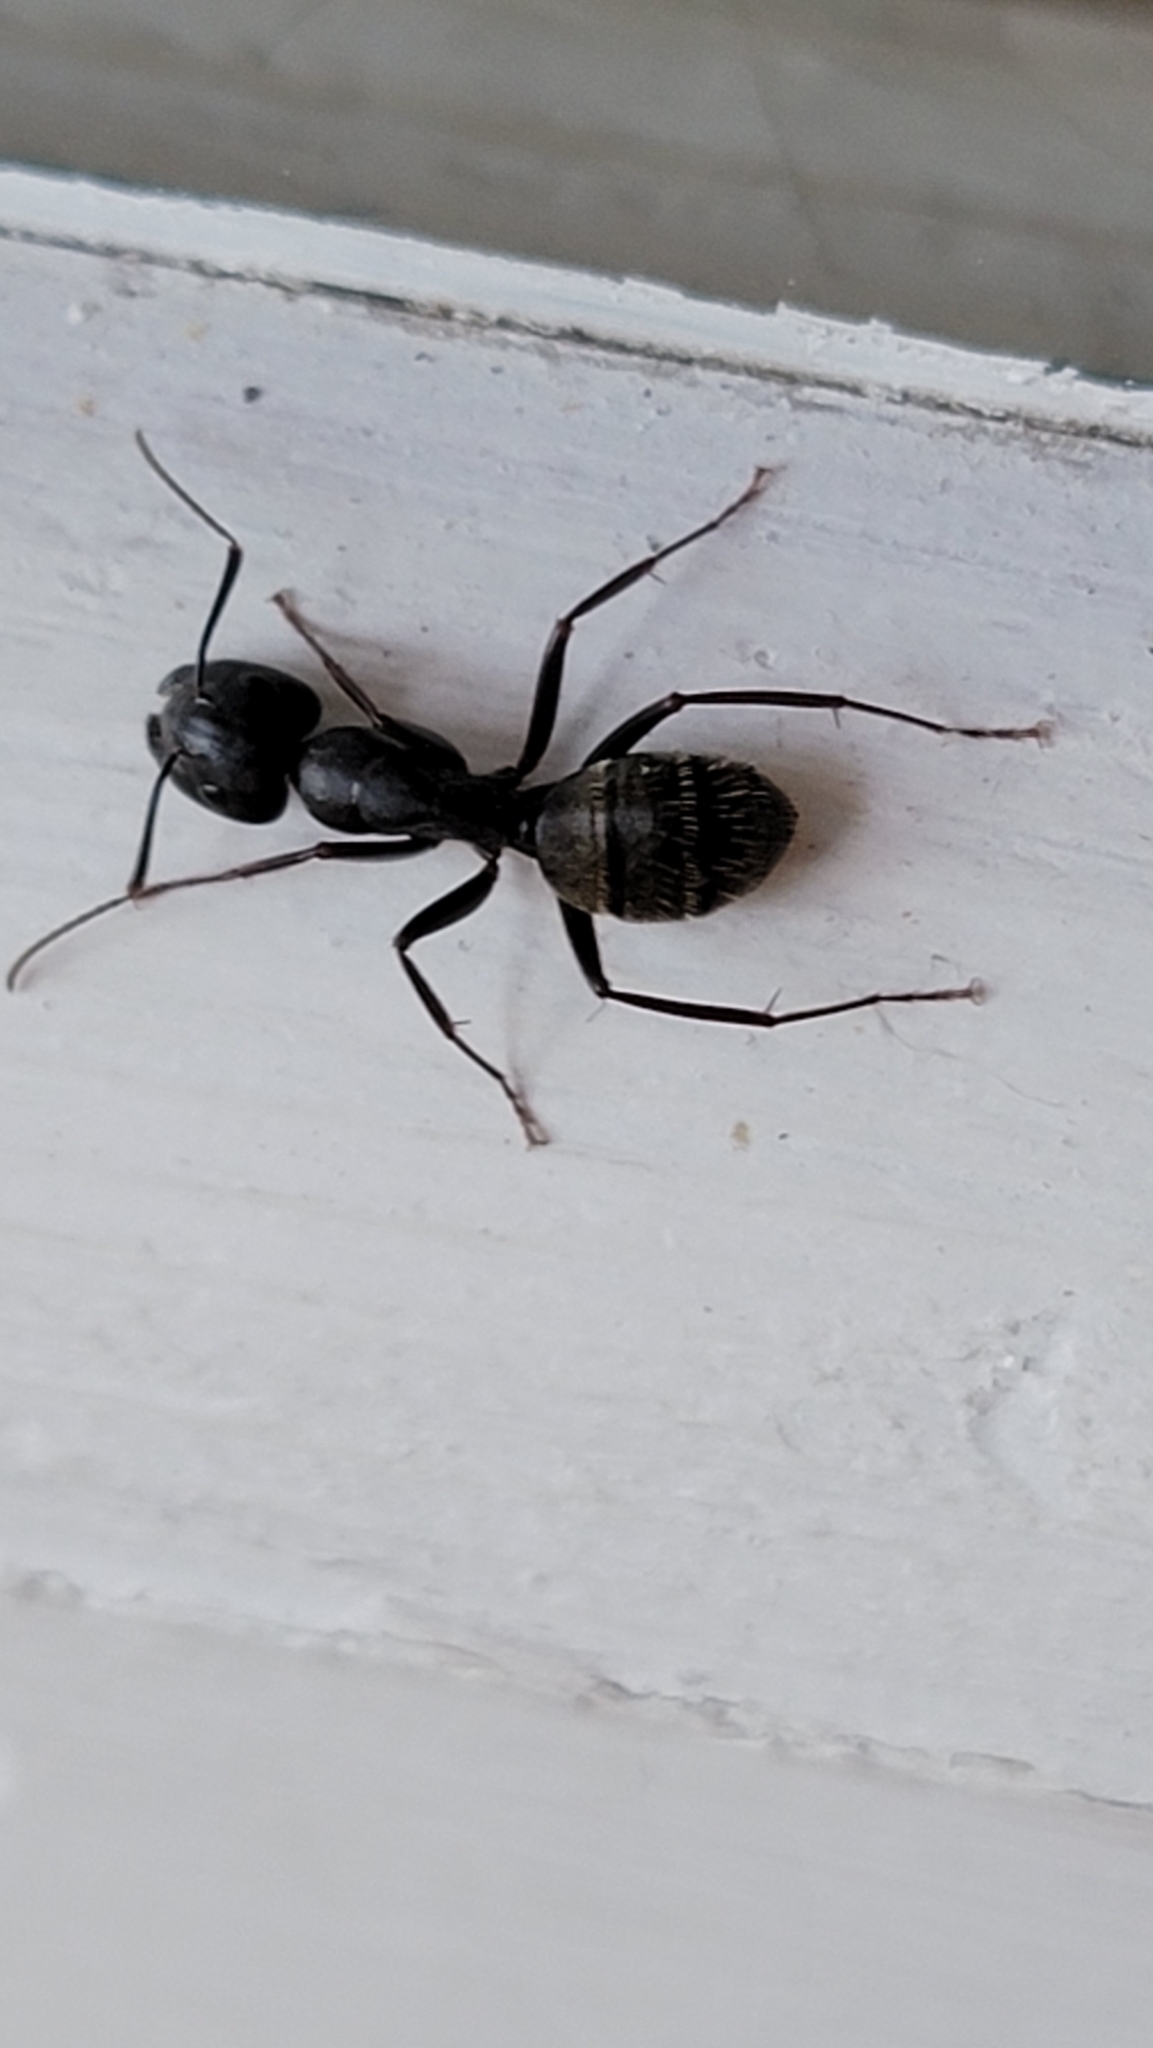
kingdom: Animalia
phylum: Arthropoda
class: Insecta
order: Hymenoptera
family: Formicidae
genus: Camponotus
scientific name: Camponotus pennsylvanicus
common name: Black carpenter ant
